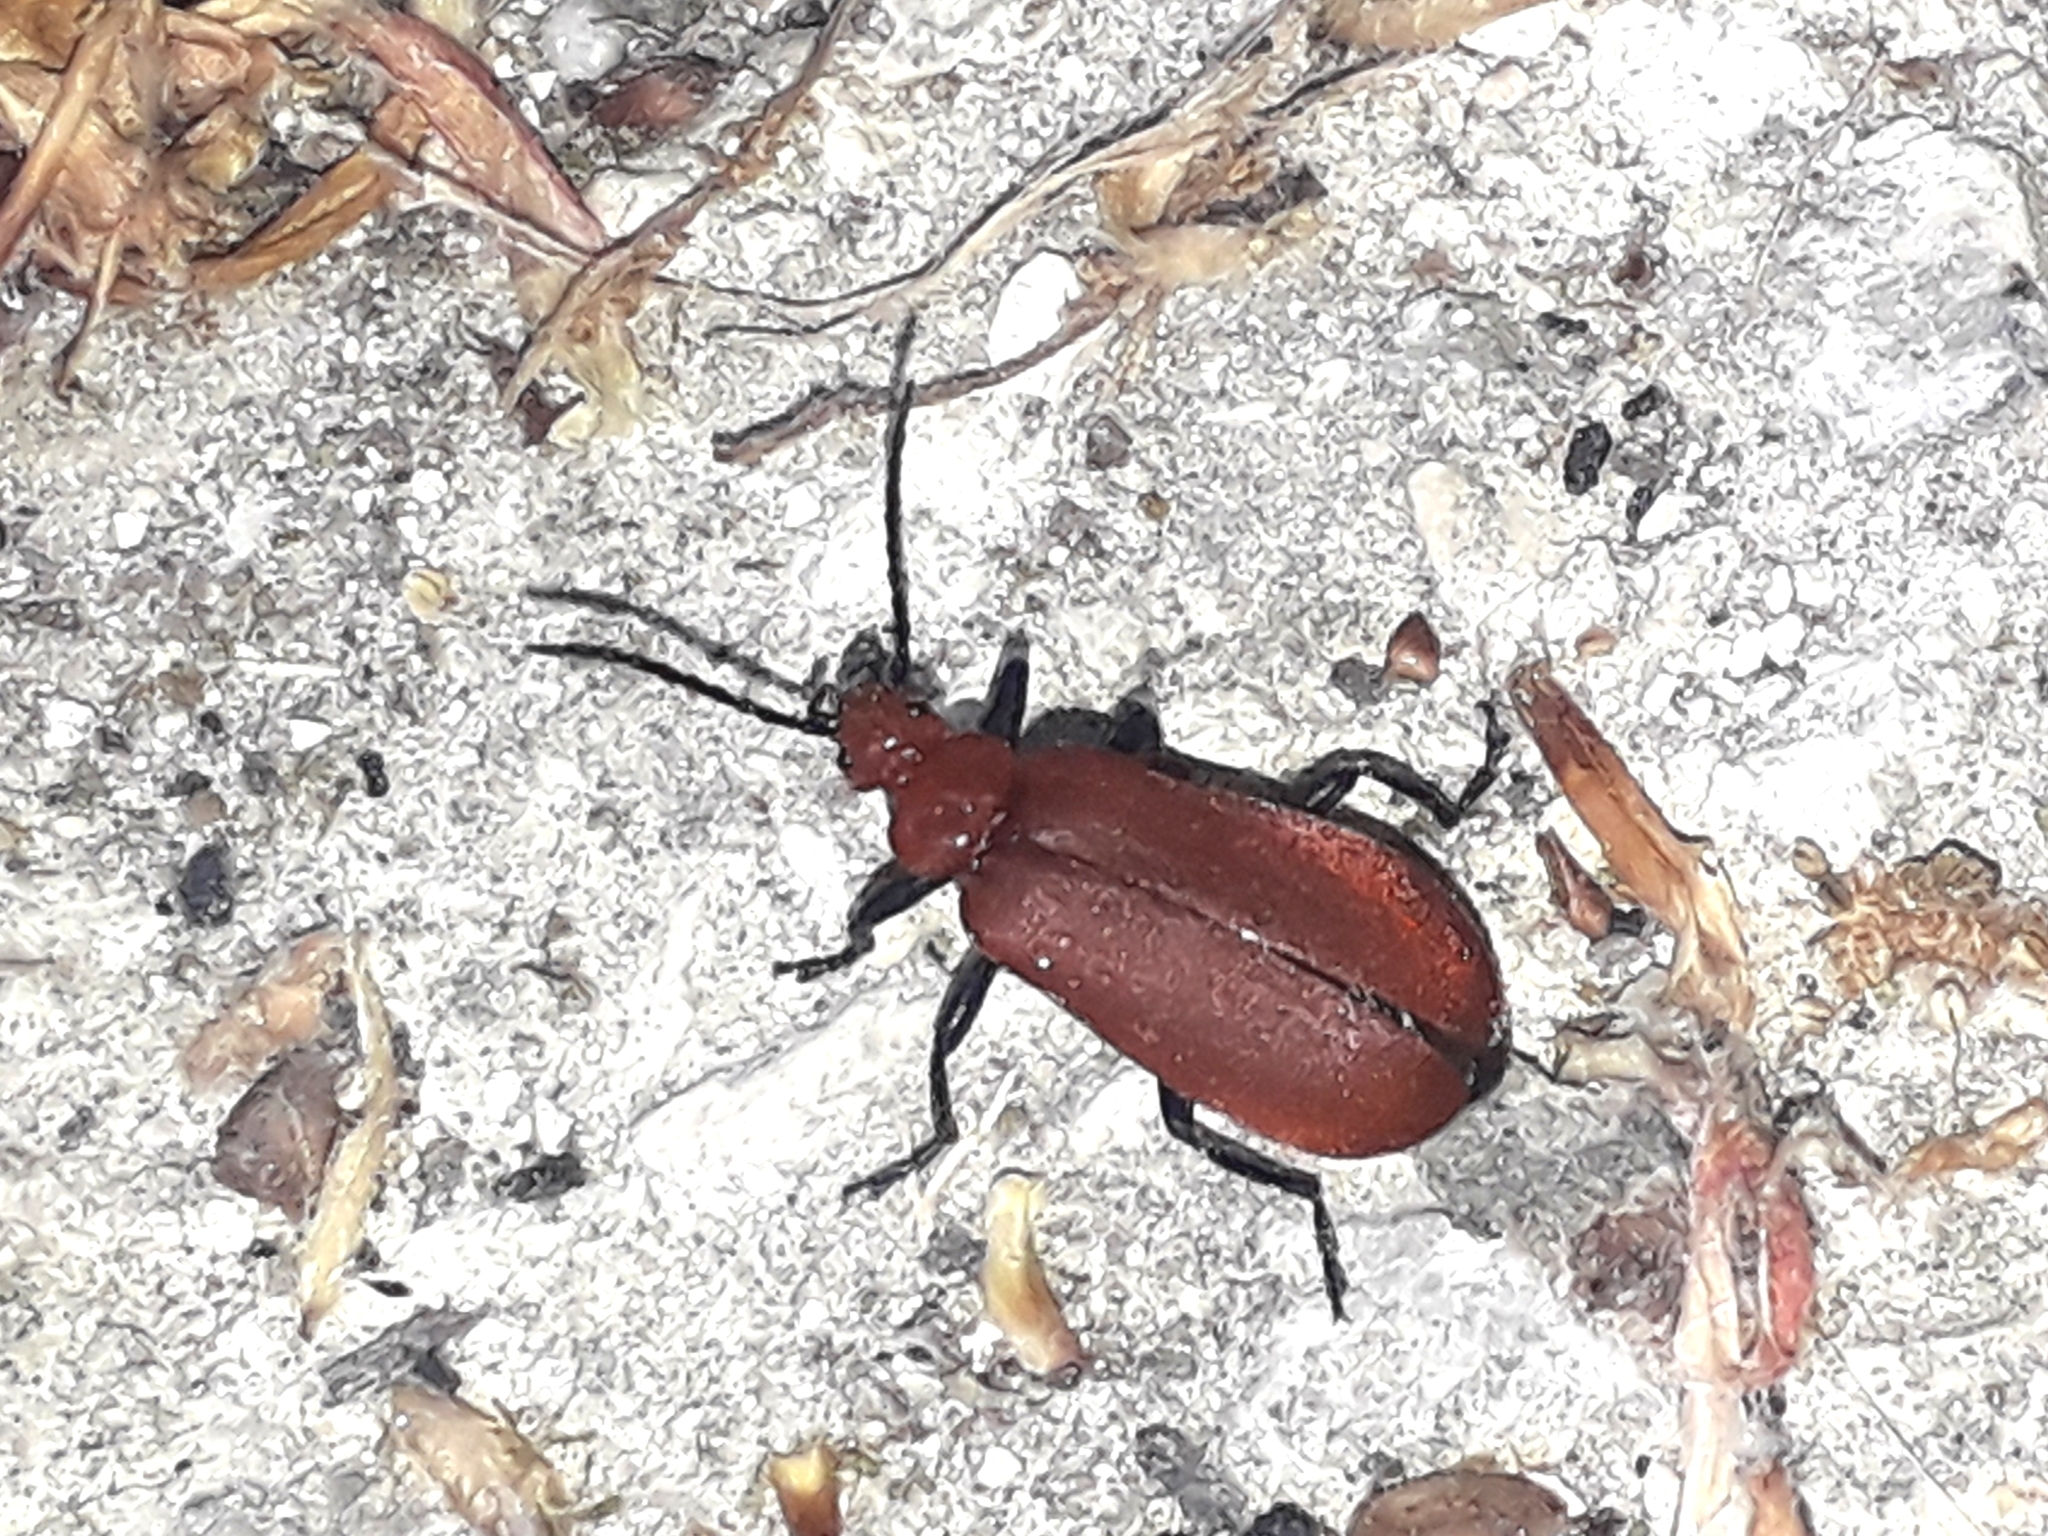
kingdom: Animalia
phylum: Arthropoda
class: Insecta
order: Coleoptera
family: Pyrochroidae
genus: Pyrochroa
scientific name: Pyrochroa serraticornis
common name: Red-headed cardinal beetle
